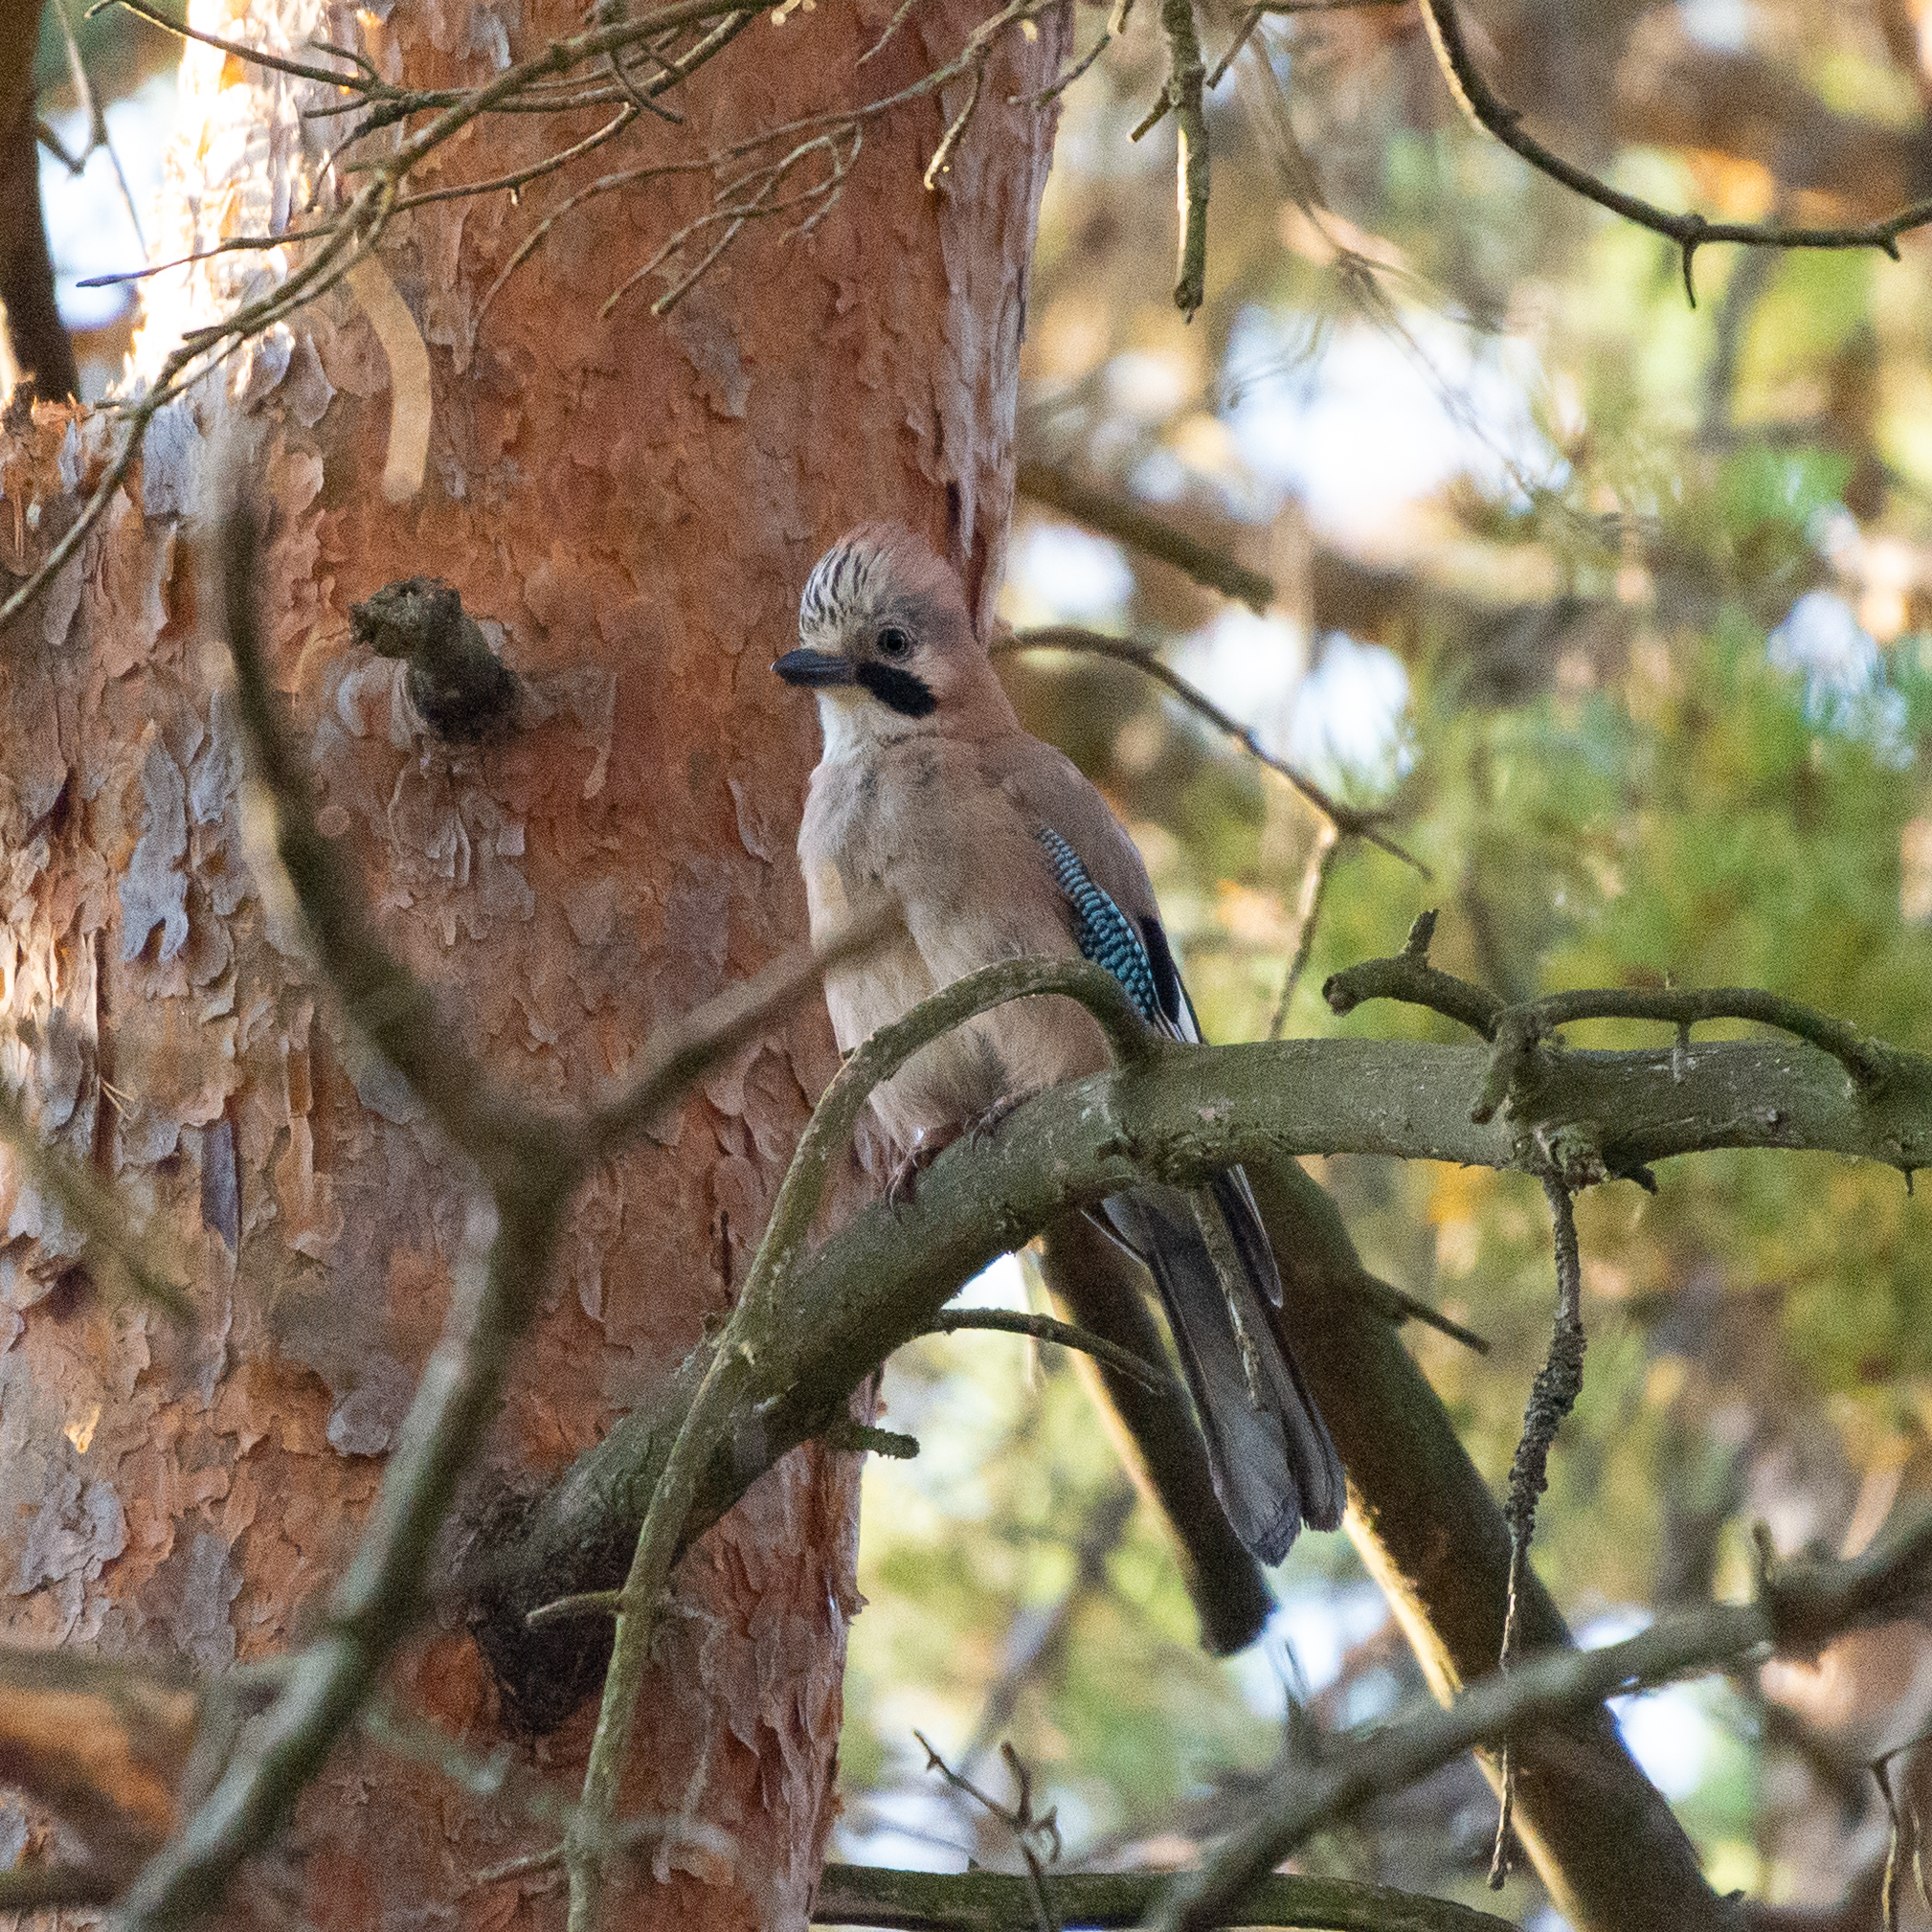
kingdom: Animalia
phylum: Chordata
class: Aves
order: Passeriformes
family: Corvidae
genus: Garrulus
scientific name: Garrulus glandarius
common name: Eurasian jay
